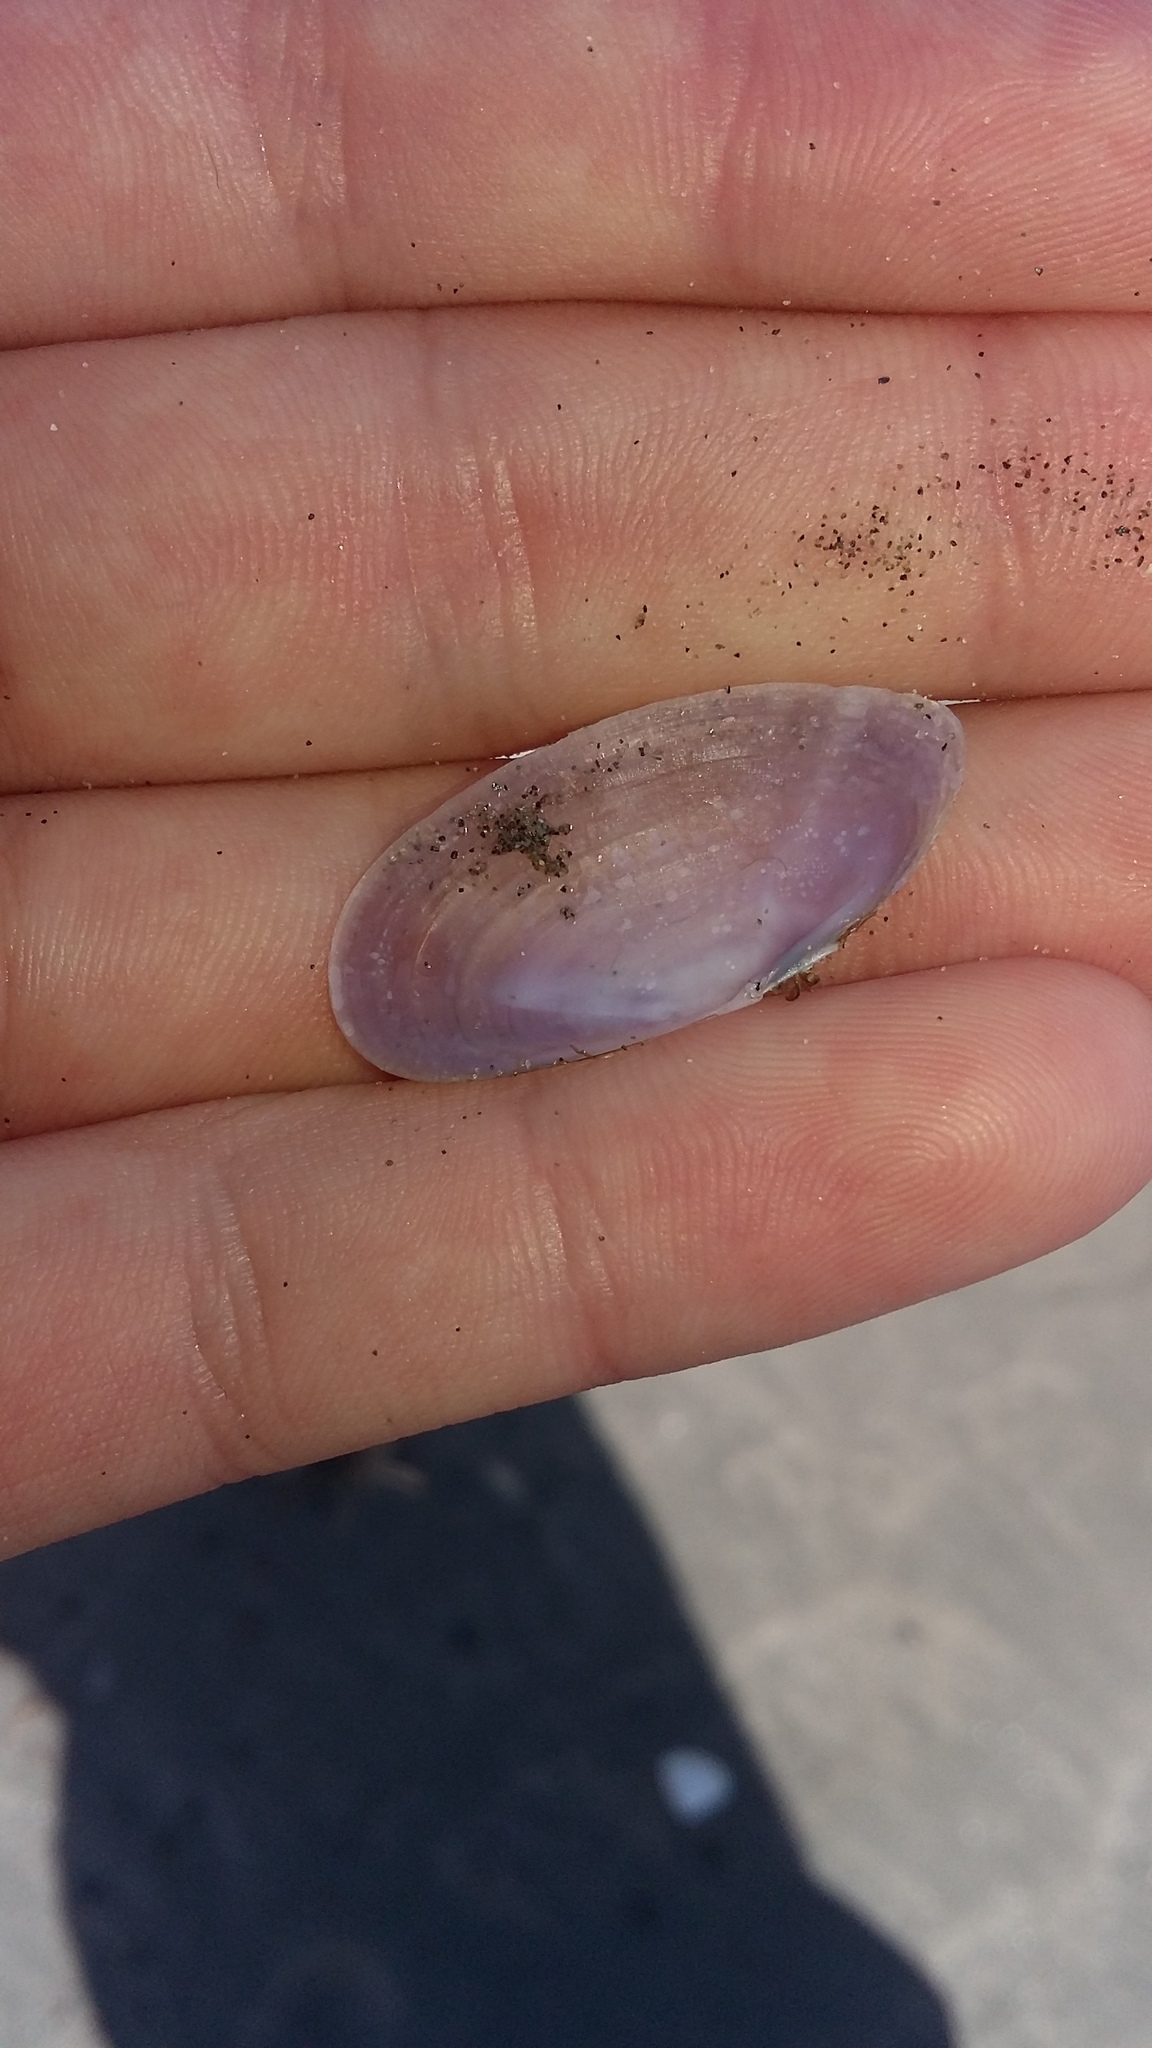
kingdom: Animalia
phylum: Mollusca
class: Bivalvia
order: Cardiida
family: Psammobiidae
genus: Hiatula
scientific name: Hiatula nitida
